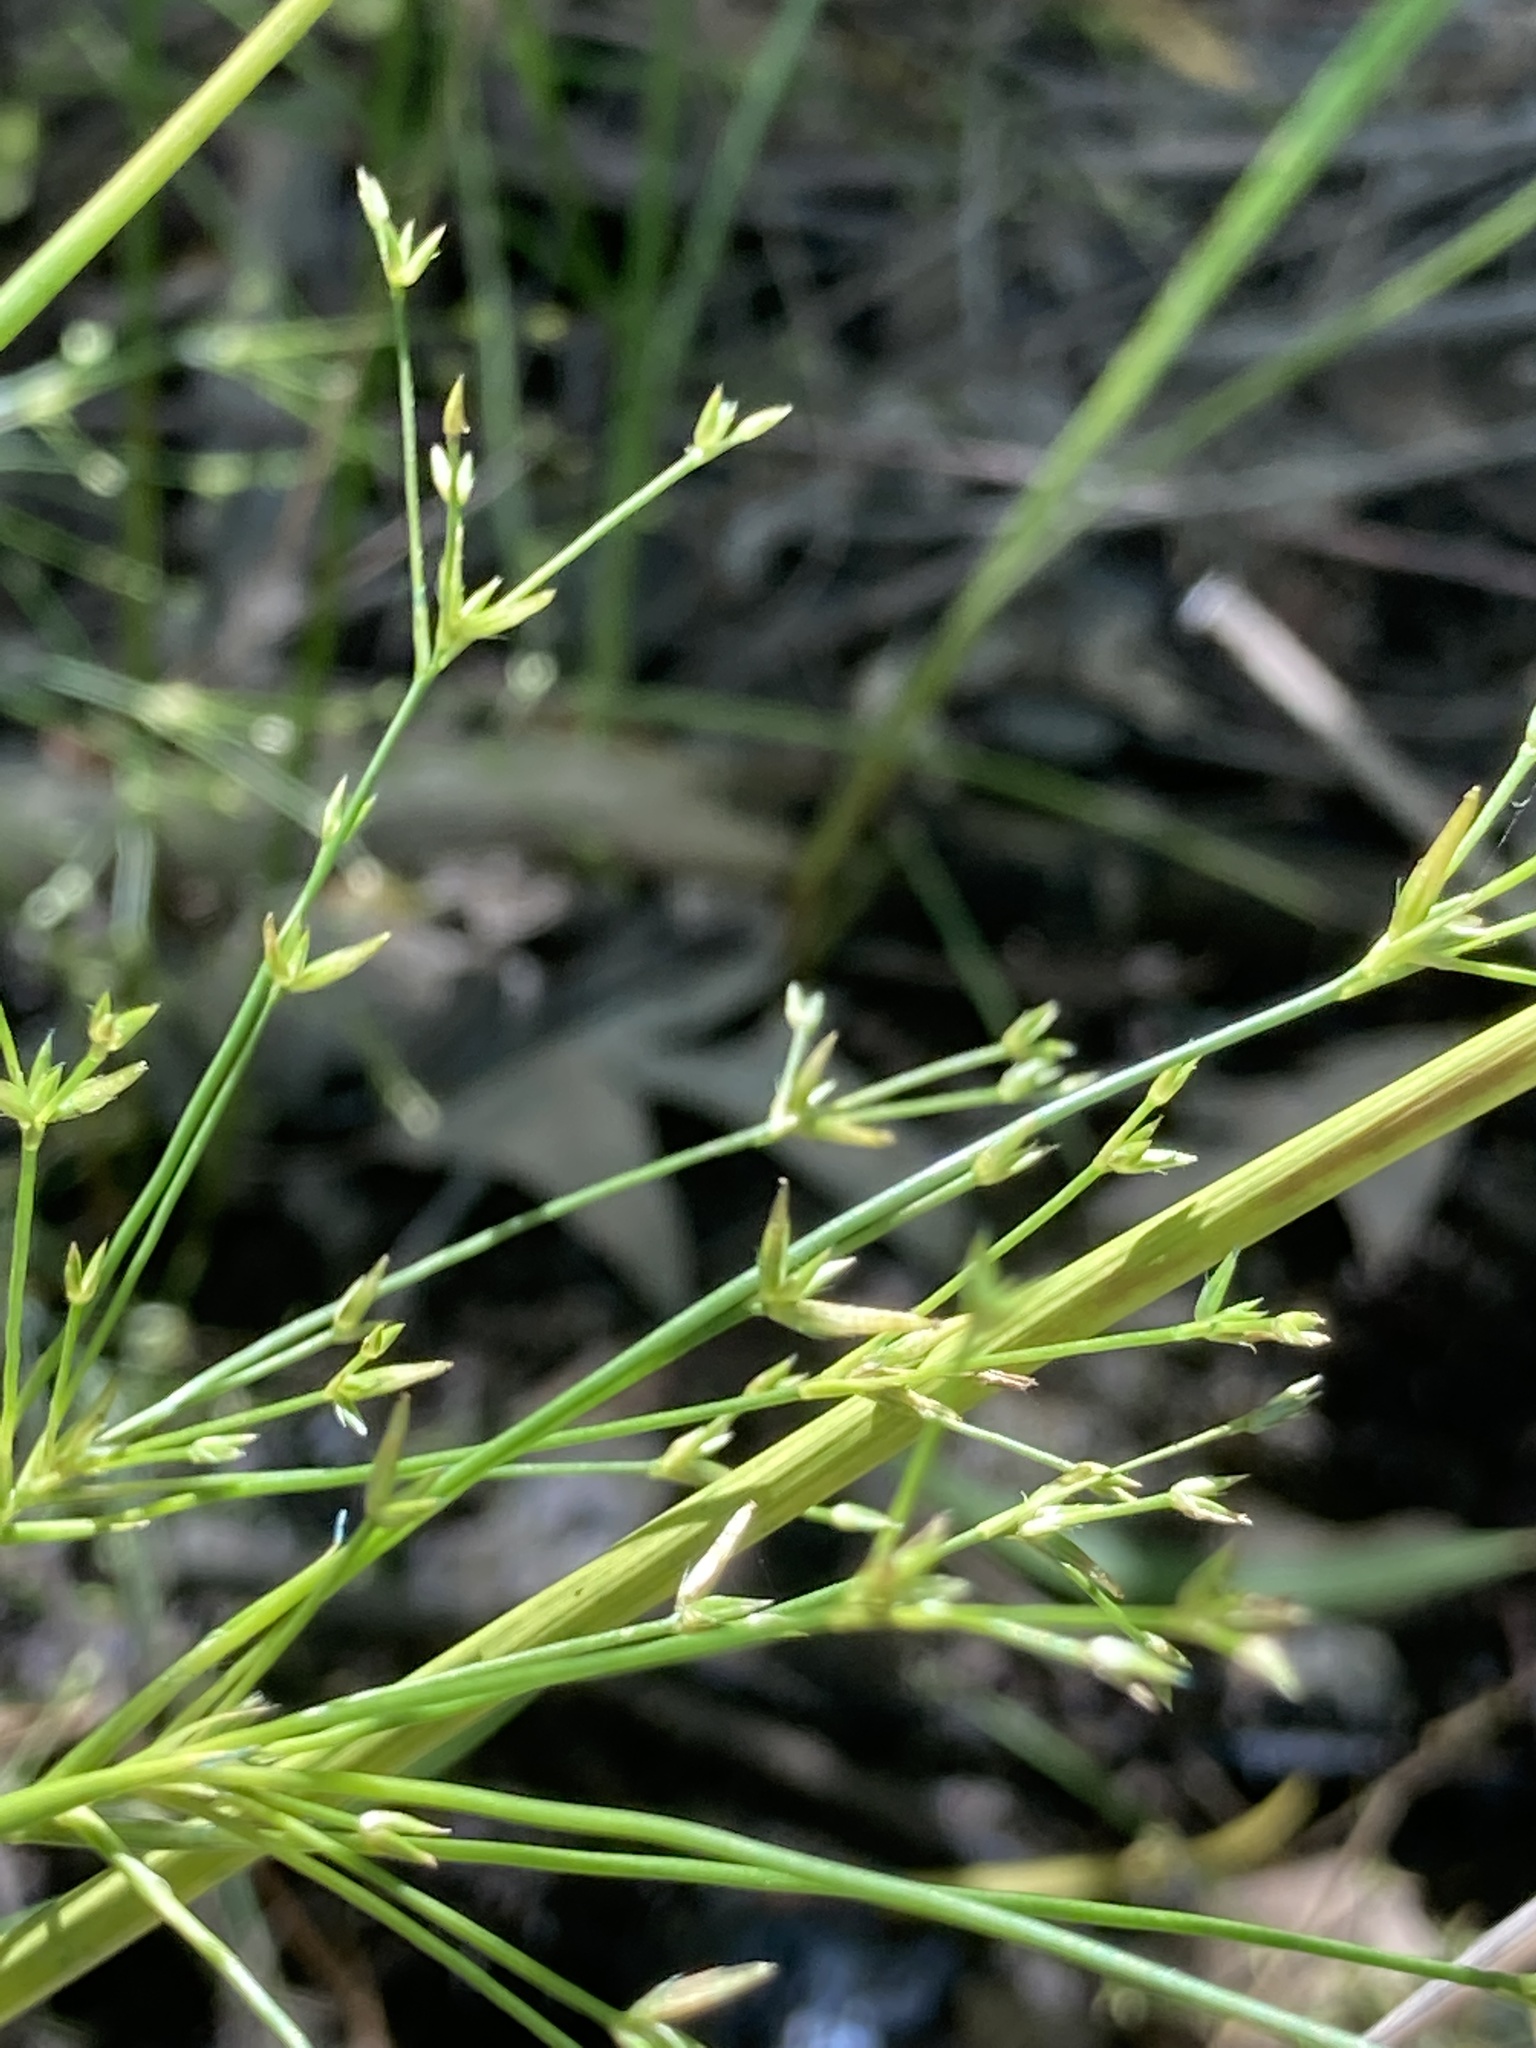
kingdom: Plantae
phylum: Tracheophyta
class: Liliopsida
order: Poales
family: Juncaceae
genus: Juncus
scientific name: Juncus diffusissimus
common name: Slimpod rush
